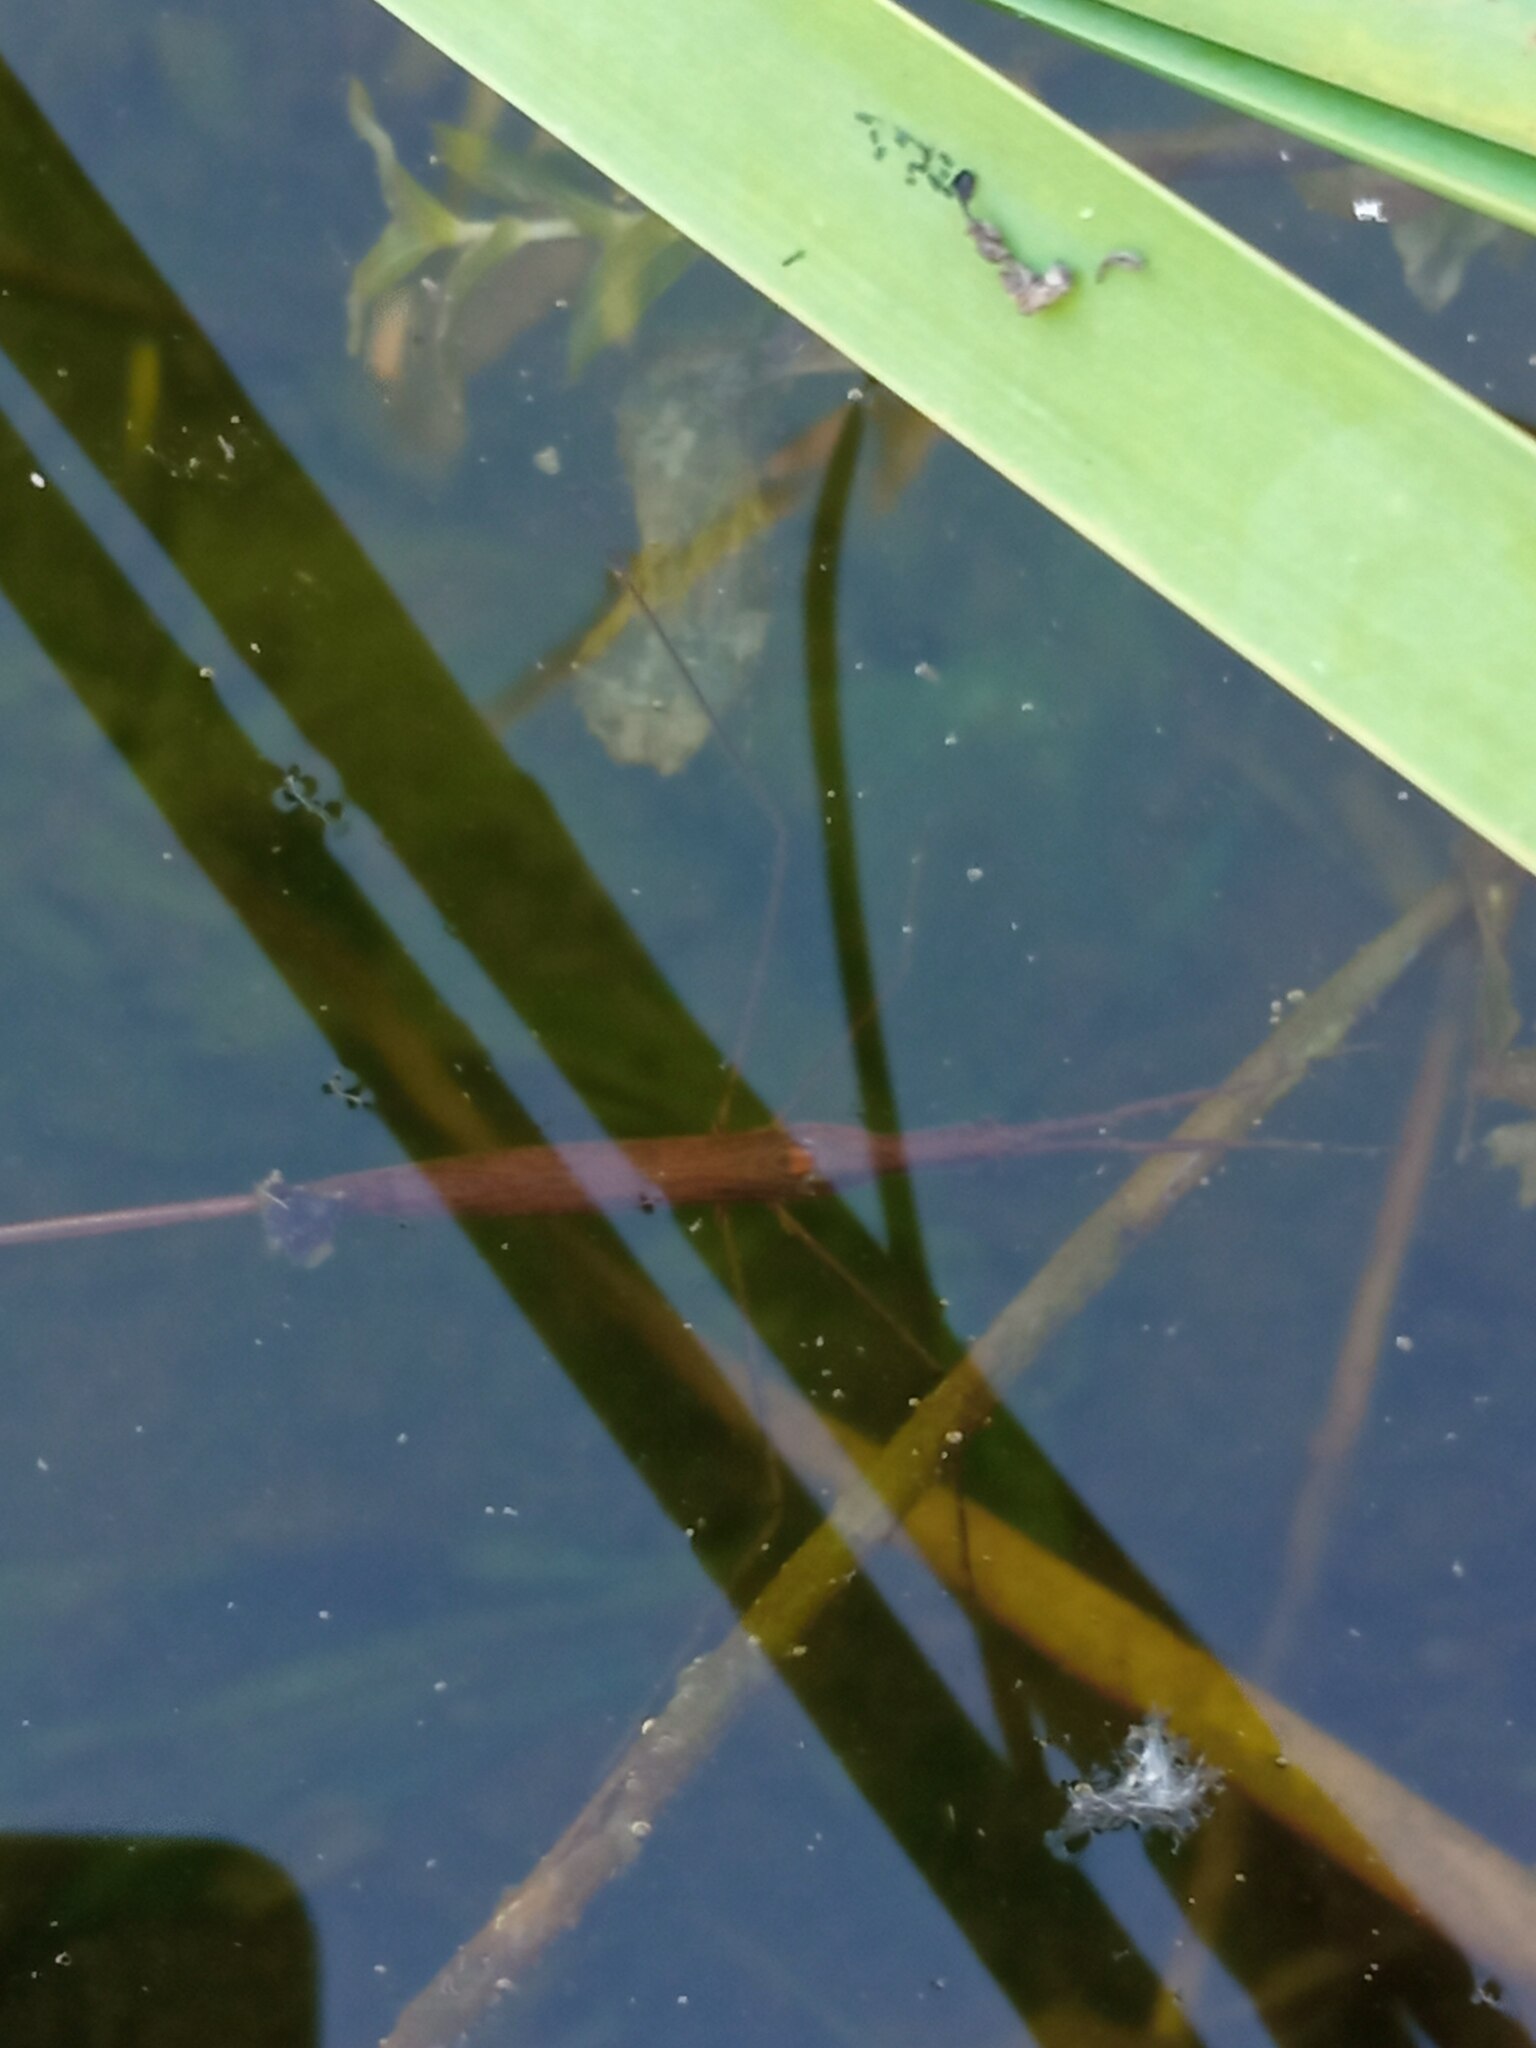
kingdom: Animalia
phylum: Arthropoda
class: Insecta
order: Hemiptera
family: Nepidae
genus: Ranatra
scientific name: Ranatra linearis
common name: Water stick insect
